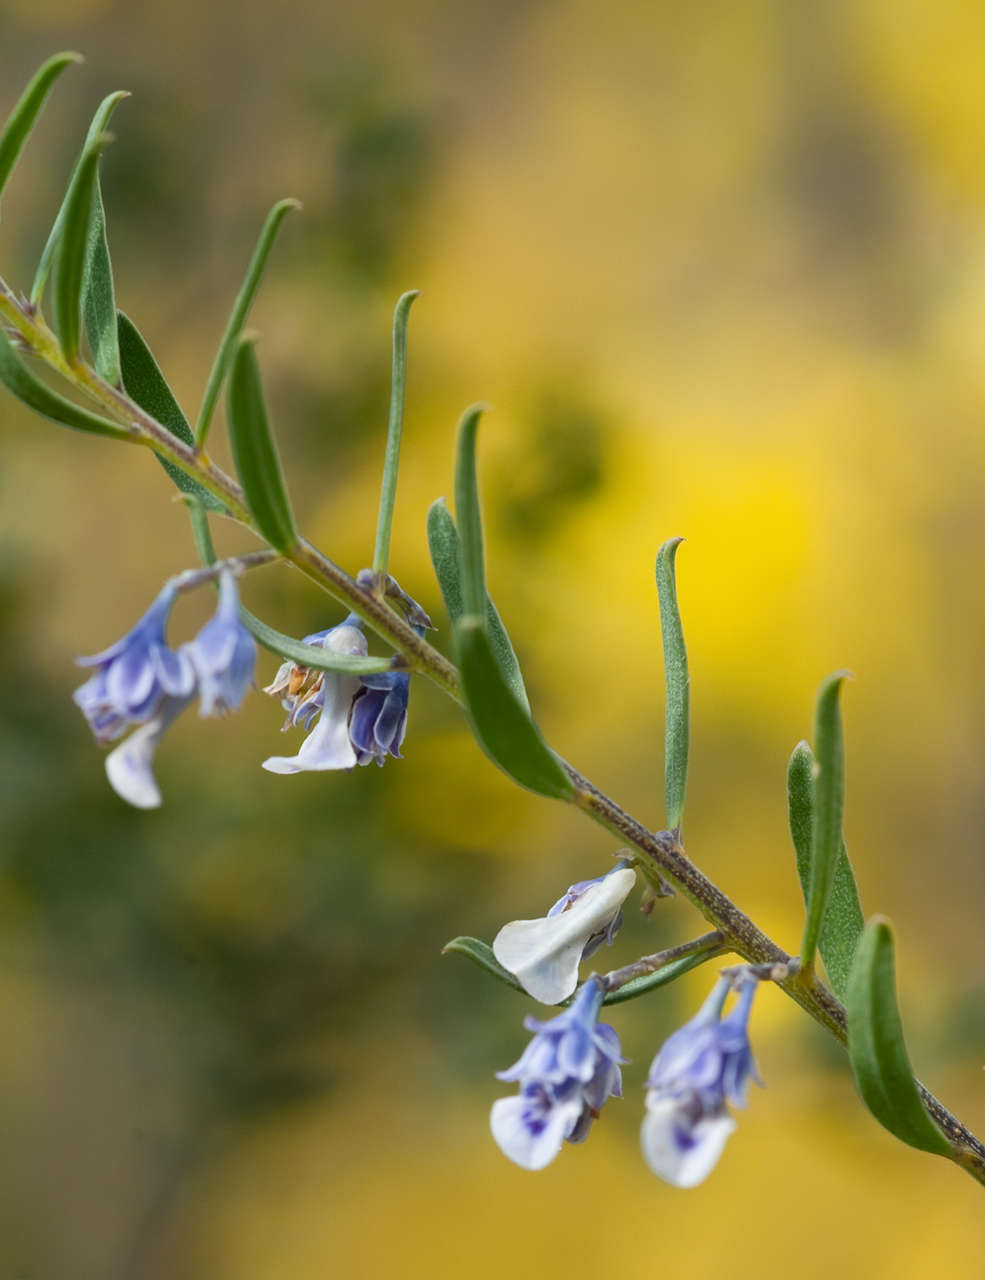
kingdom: Plantae
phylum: Tracheophyta
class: Magnoliopsida
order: Malpighiales
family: Violaceae
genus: Pigea
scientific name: Pigea floribunda
